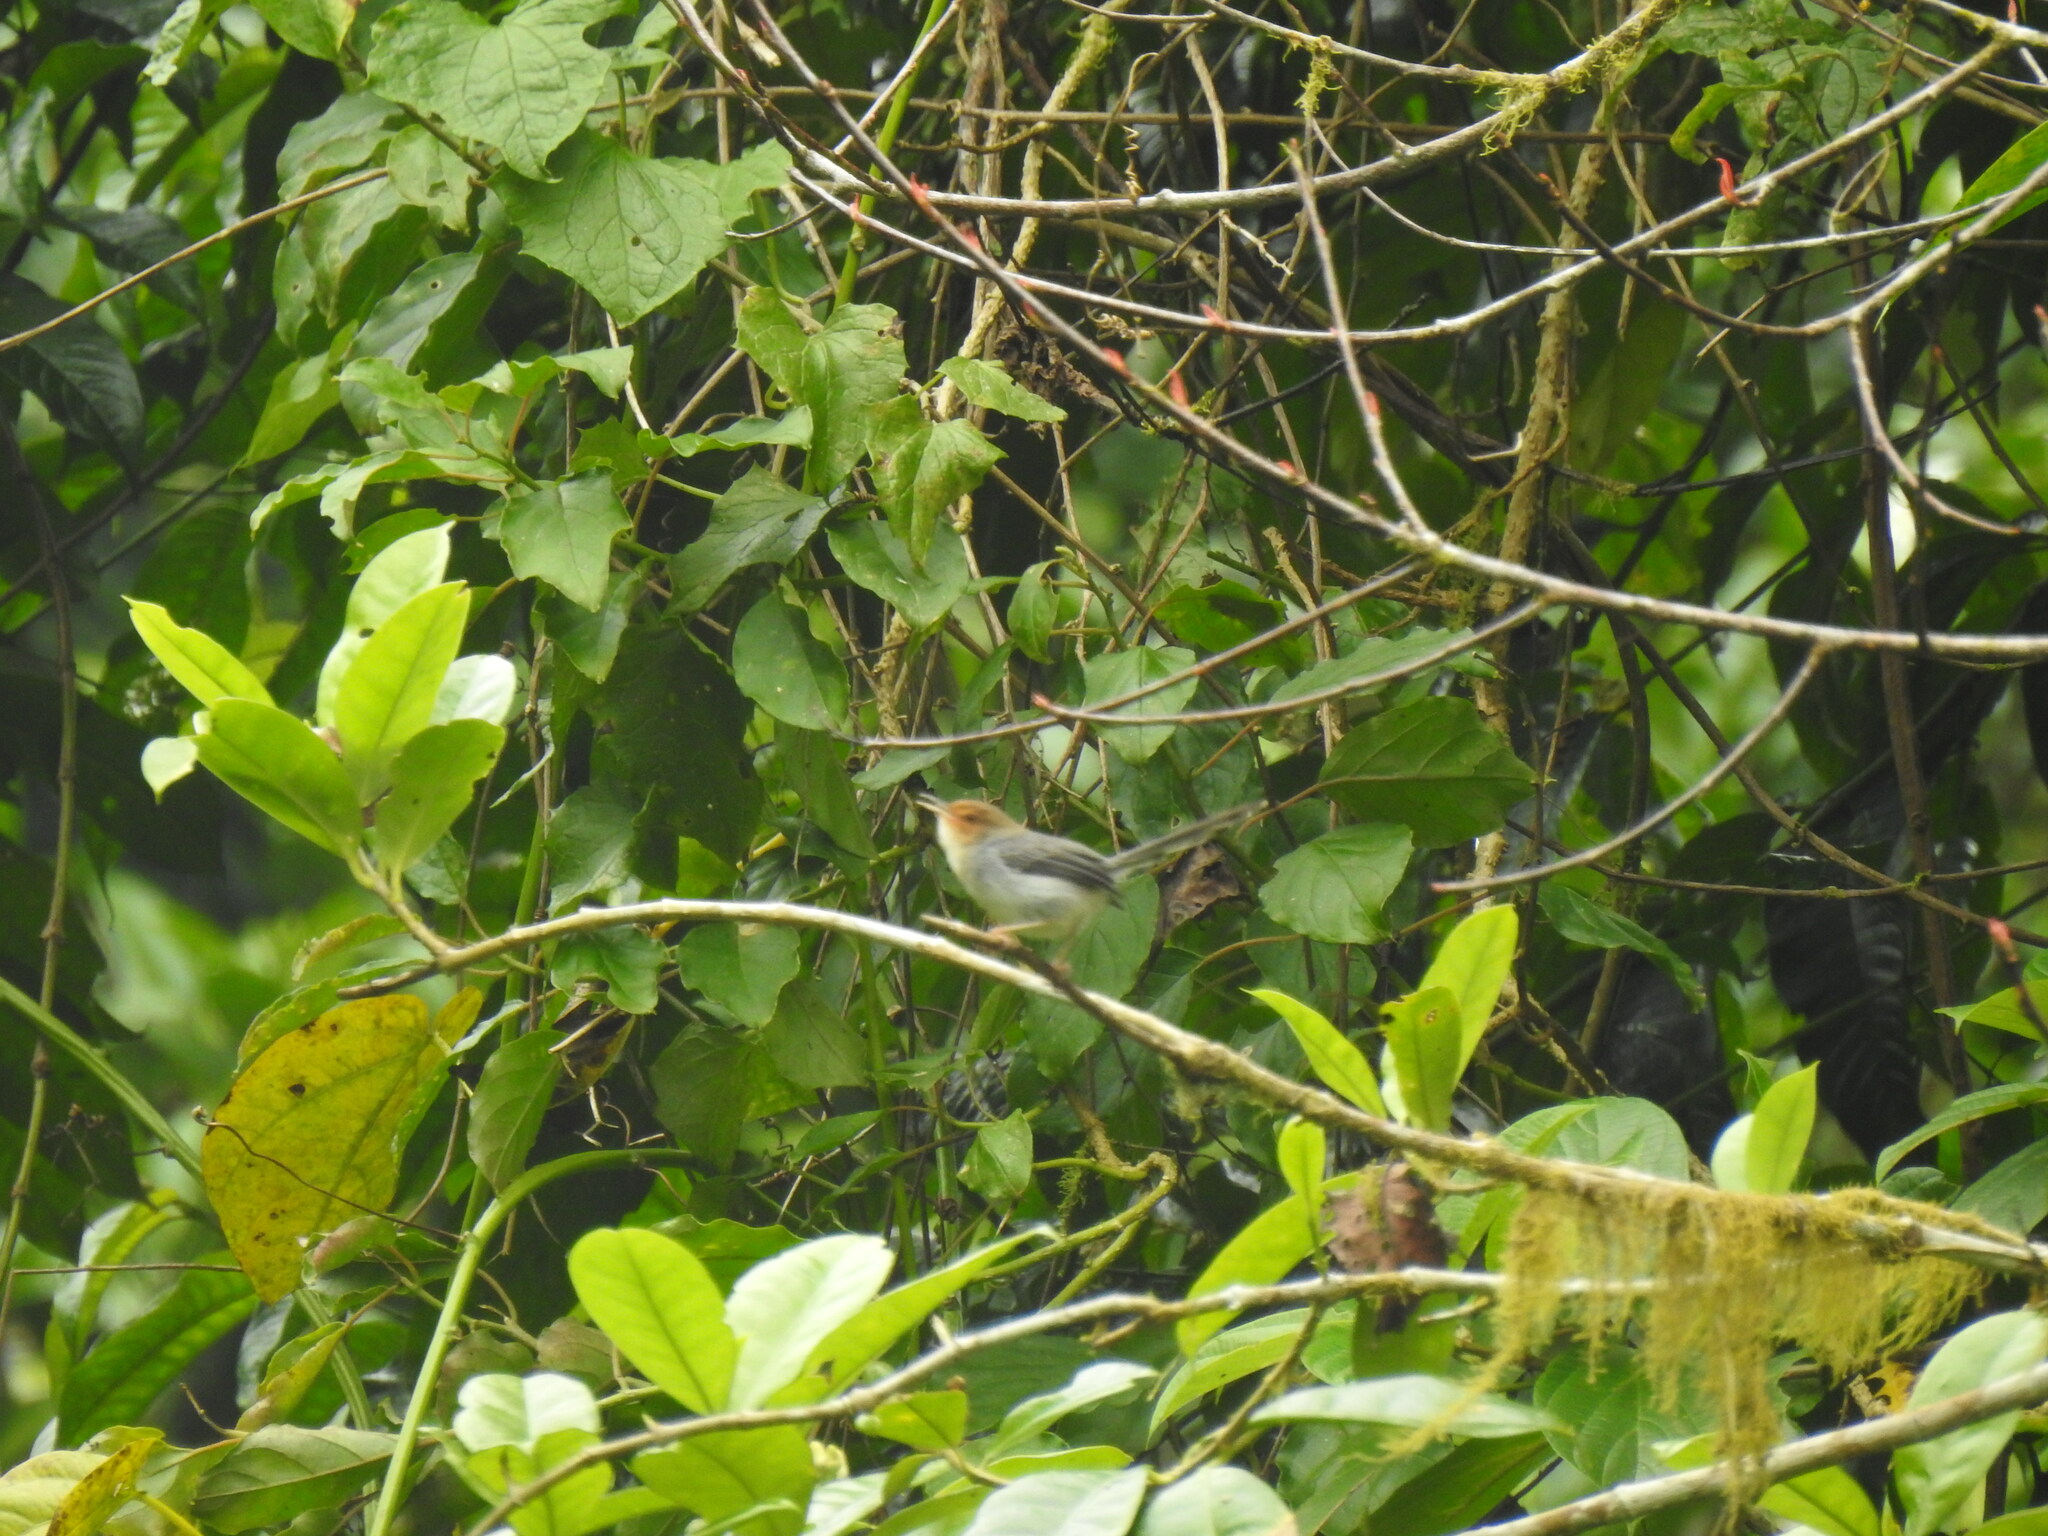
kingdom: Animalia
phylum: Chordata
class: Aves
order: Passeriformes
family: Cisticolidae
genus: Prinia
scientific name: Prinia molleri
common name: Sao tome prinia
